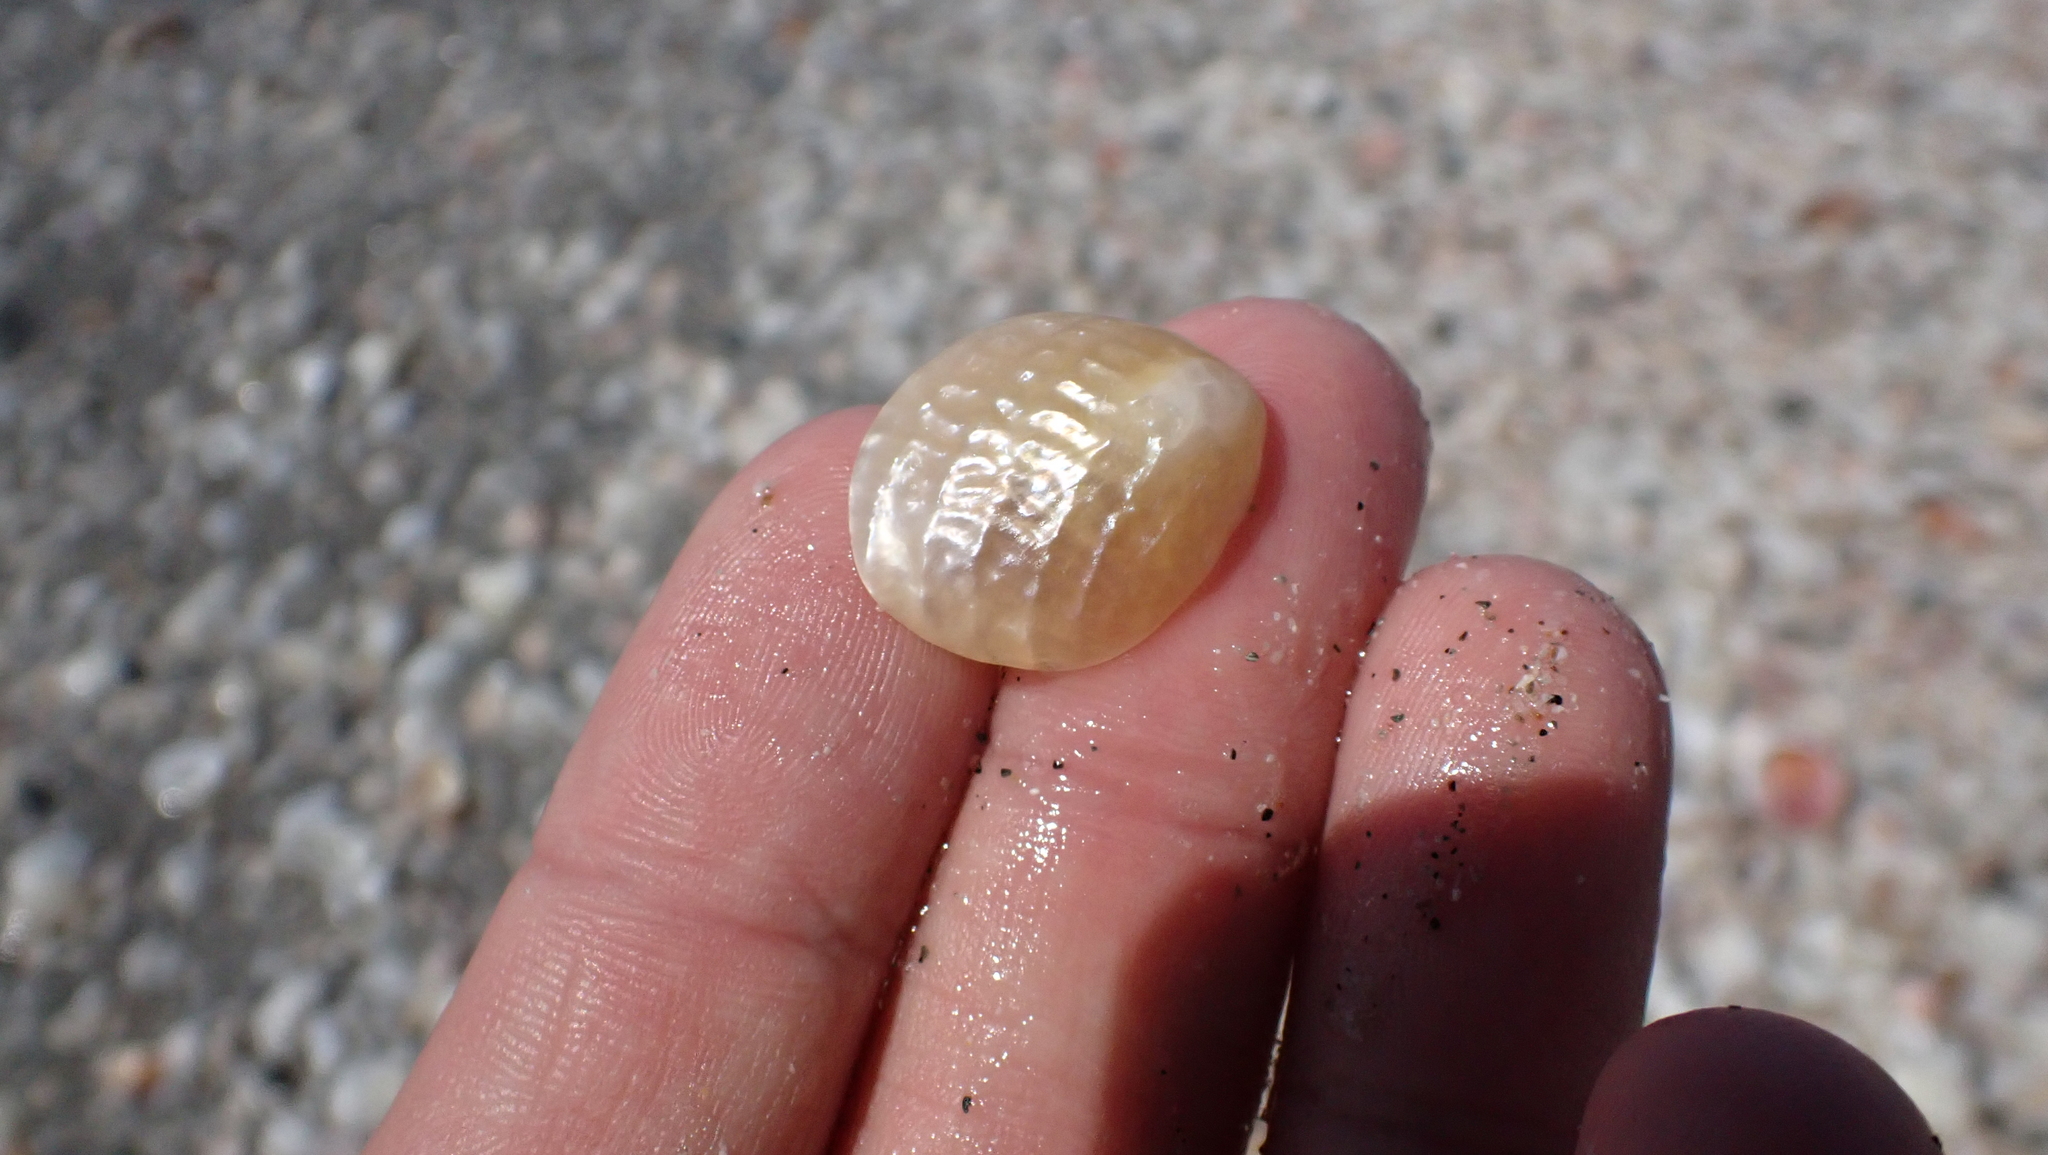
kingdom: Animalia
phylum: Mollusca
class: Bivalvia
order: Pectinida
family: Anomiidae
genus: Anomia
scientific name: Anomia simplex
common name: Common jingle shell
